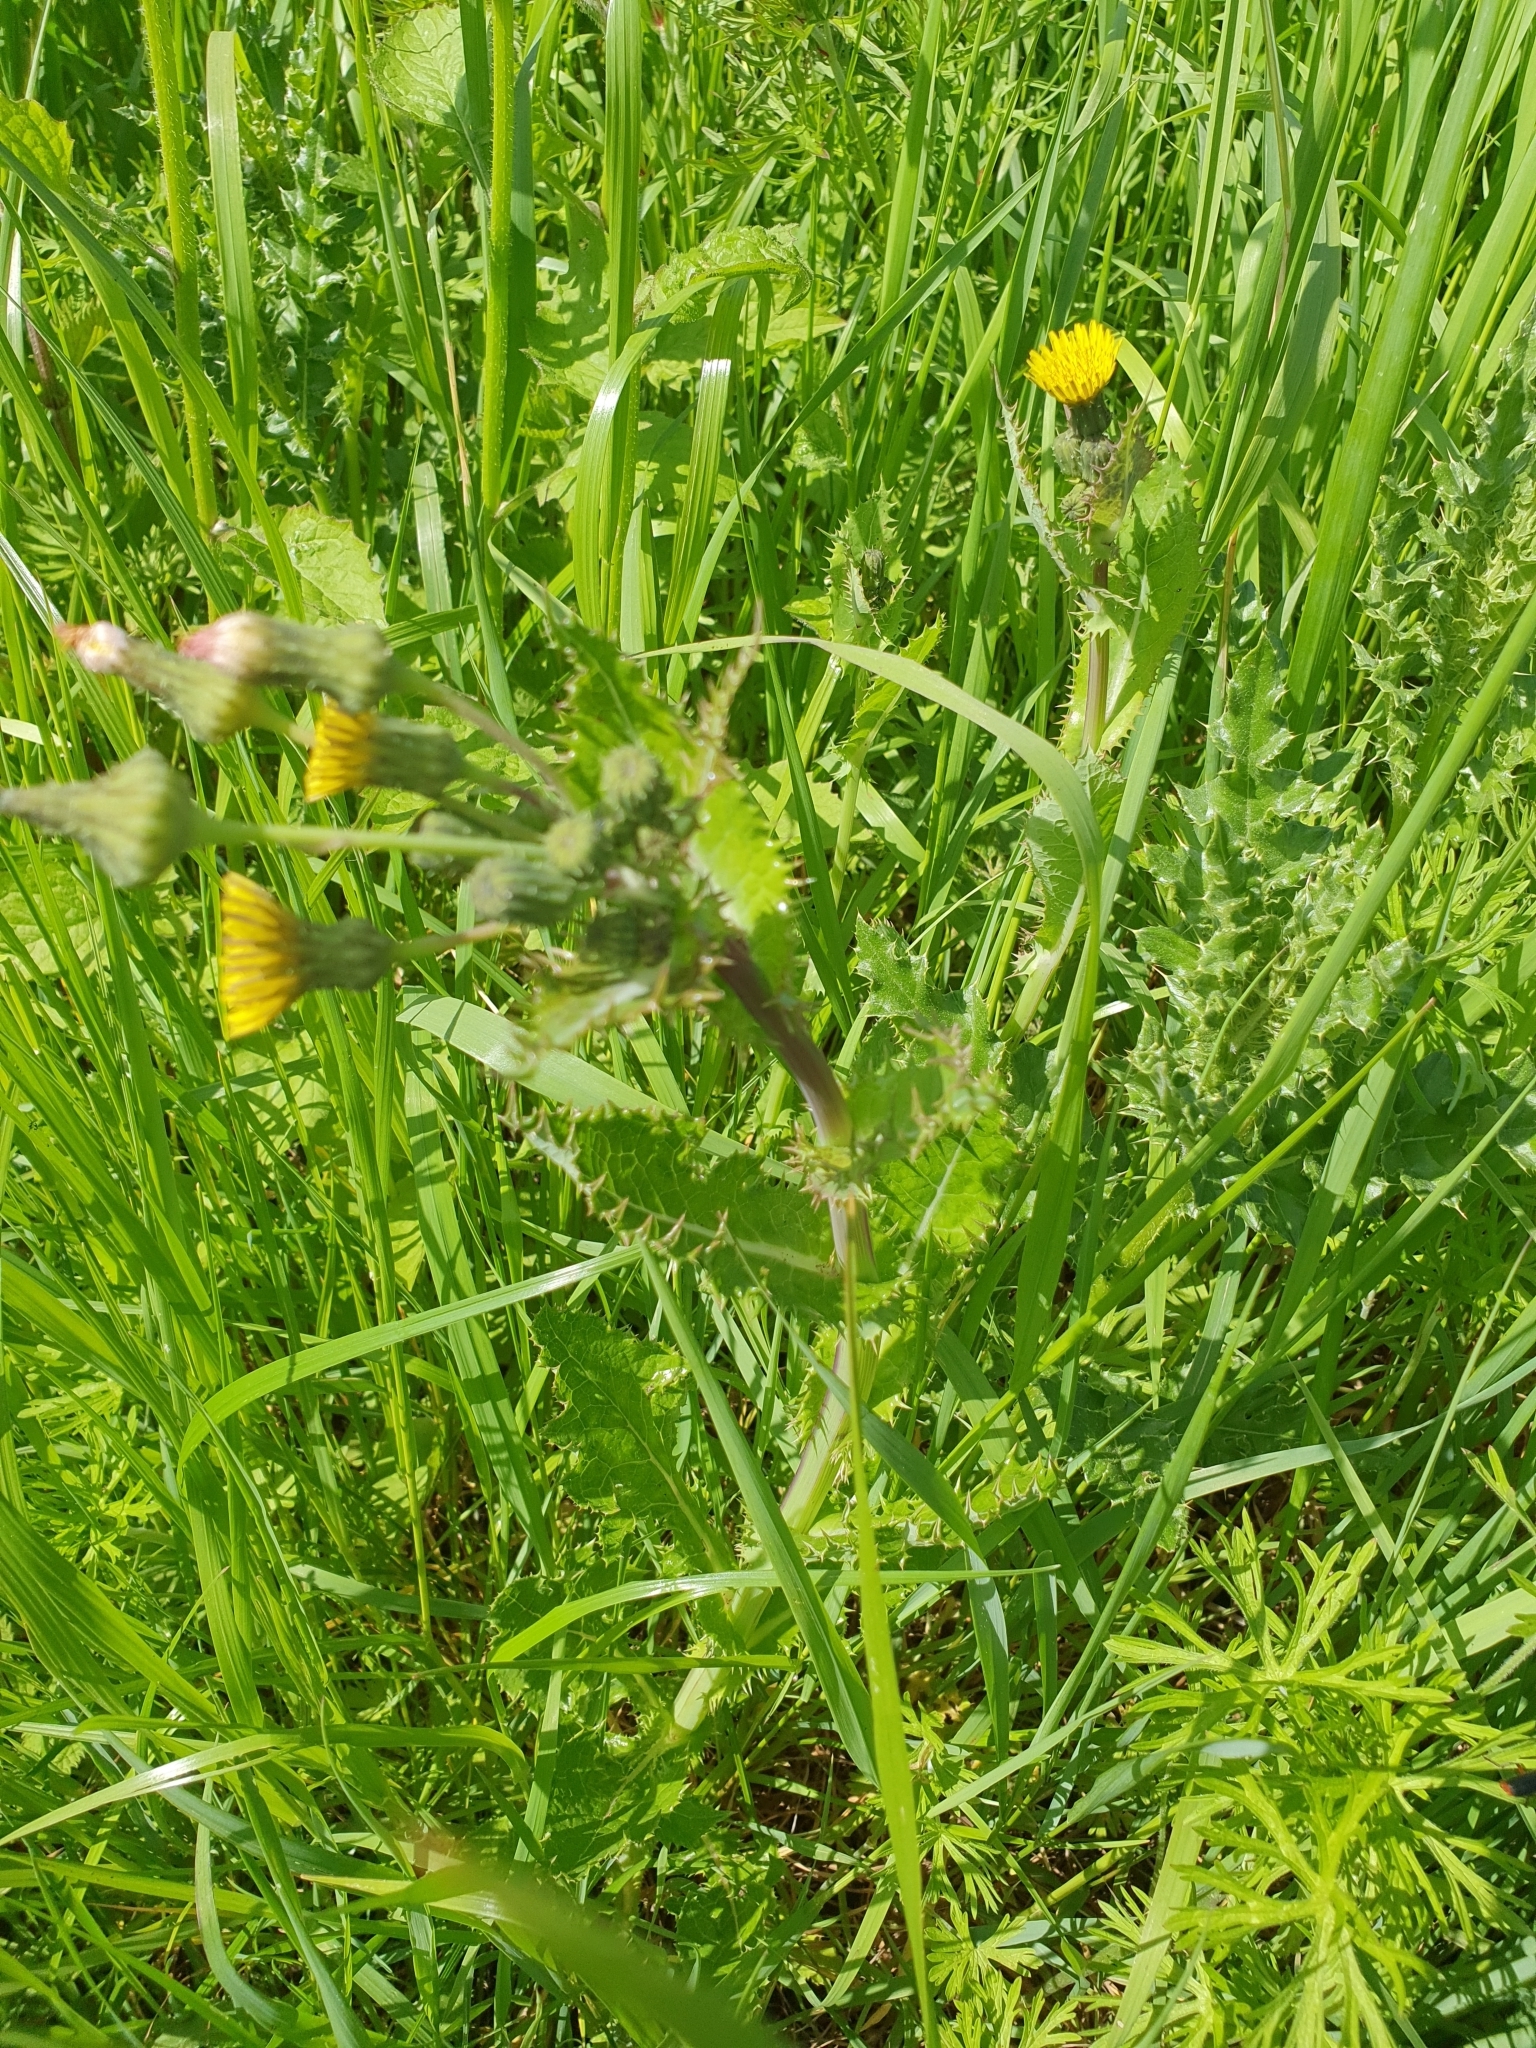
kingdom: Plantae
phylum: Tracheophyta
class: Magnoliopsida
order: Asterales
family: Asteraceae
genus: Sonchus
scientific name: Sonchus asper
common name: Prickly sow-thistle
